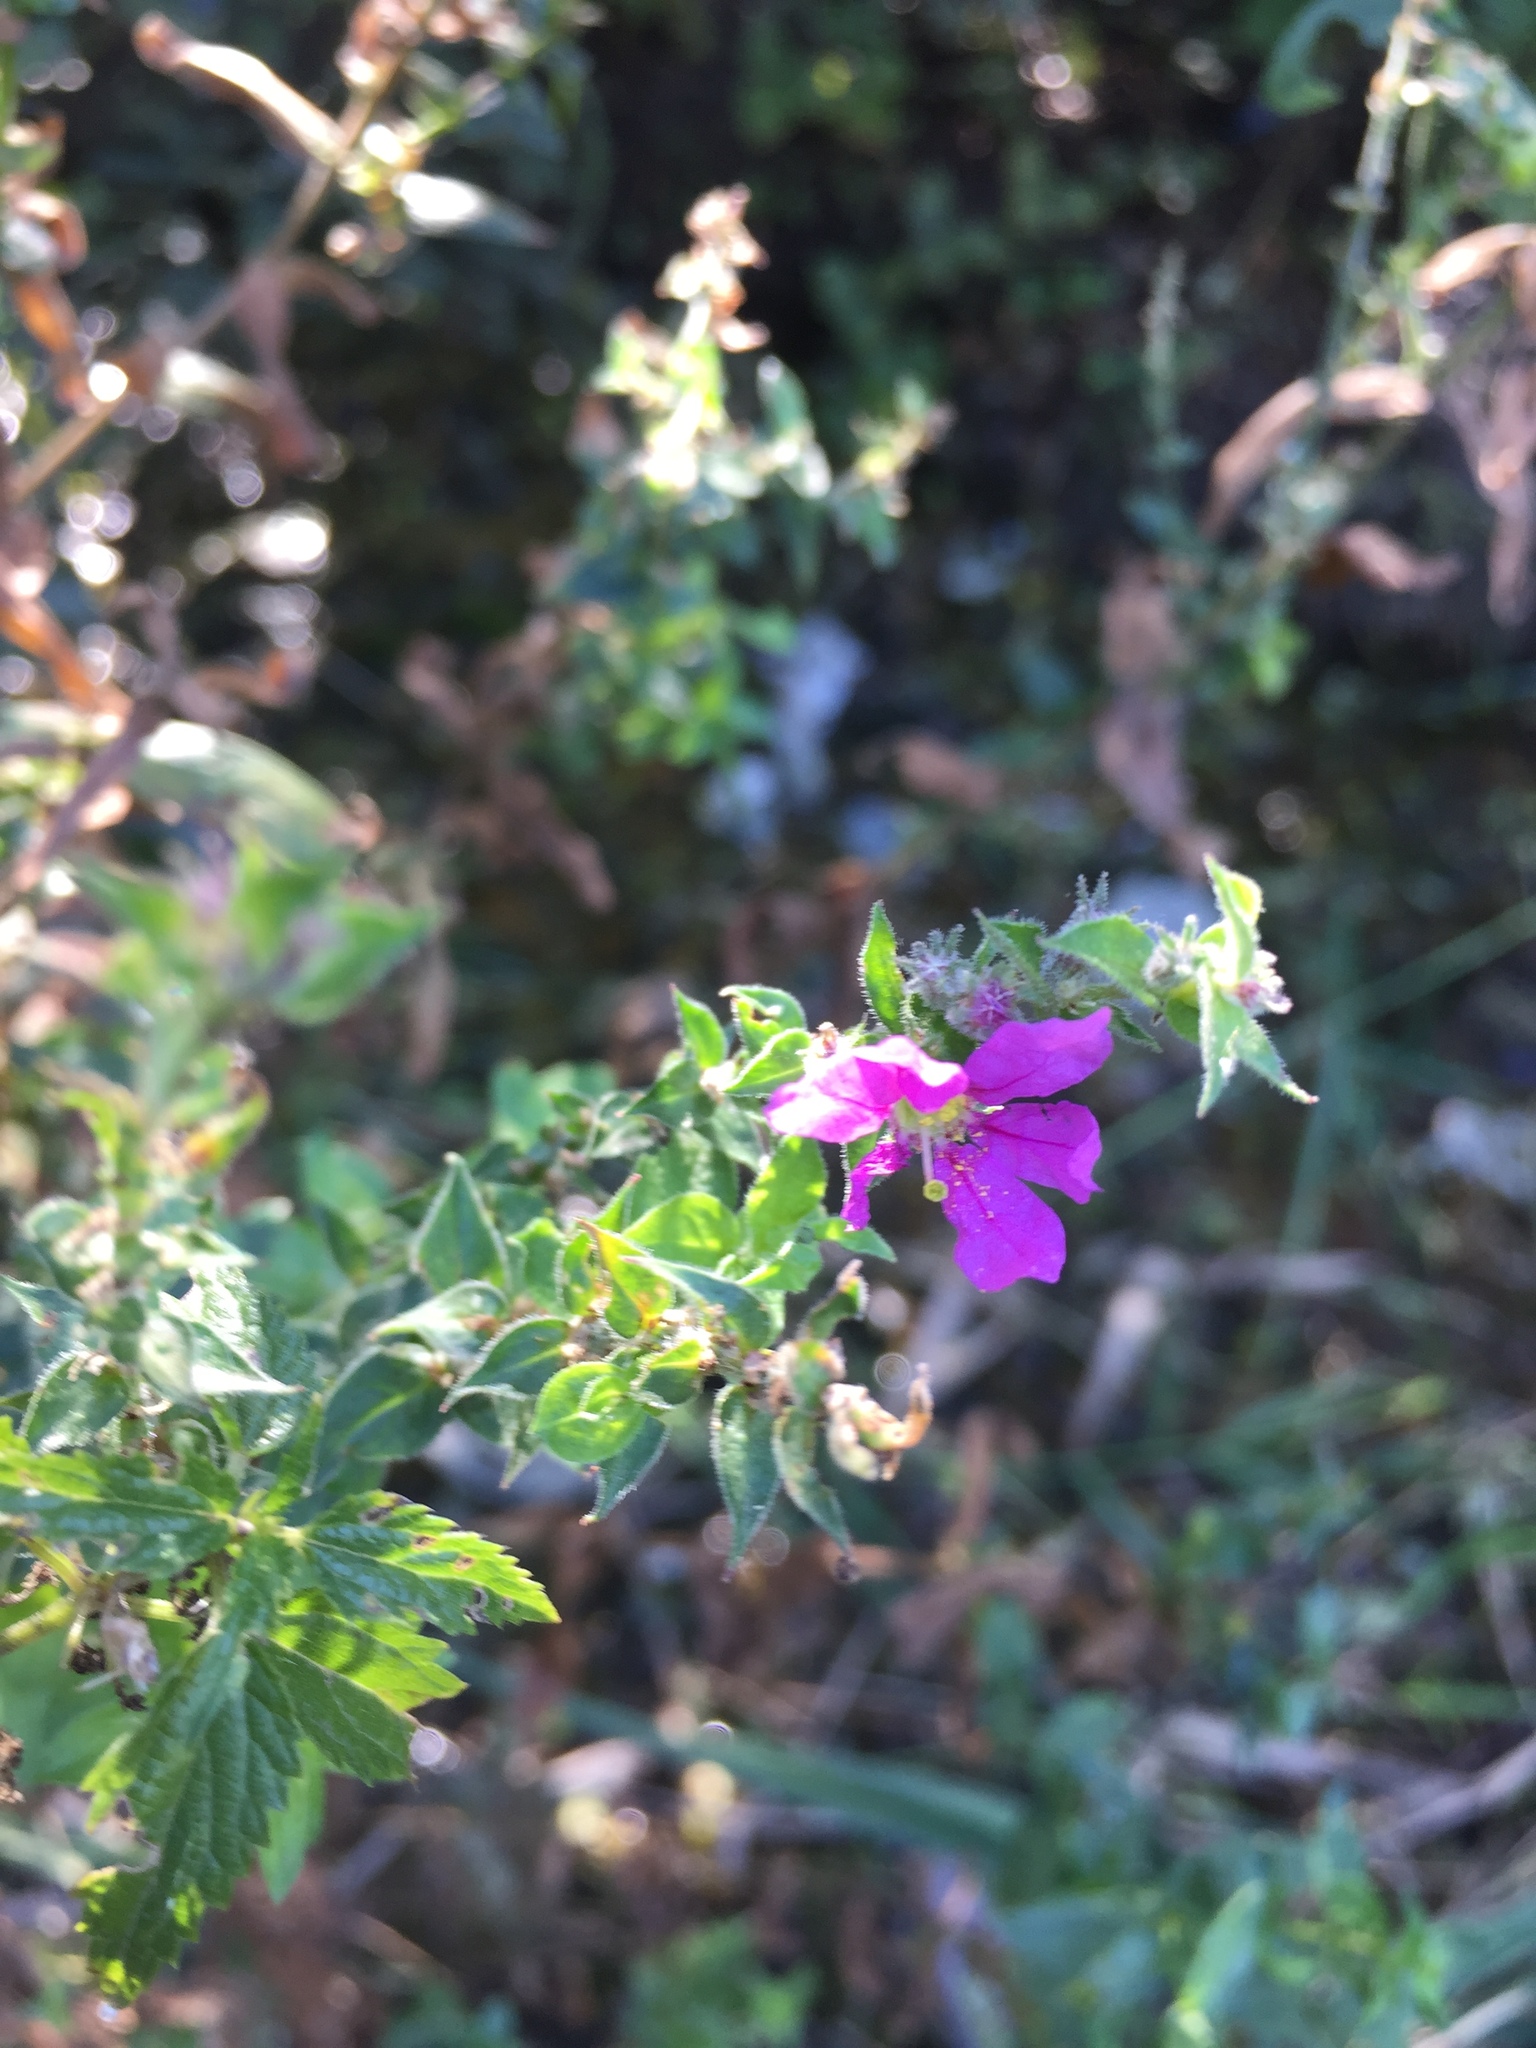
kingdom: Plantae
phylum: Tracheophyta
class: Magnoliopsida
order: Myrtales
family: Lythraceae
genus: Lythrum
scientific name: Lythrum salicaria
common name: Purple loosestrife
